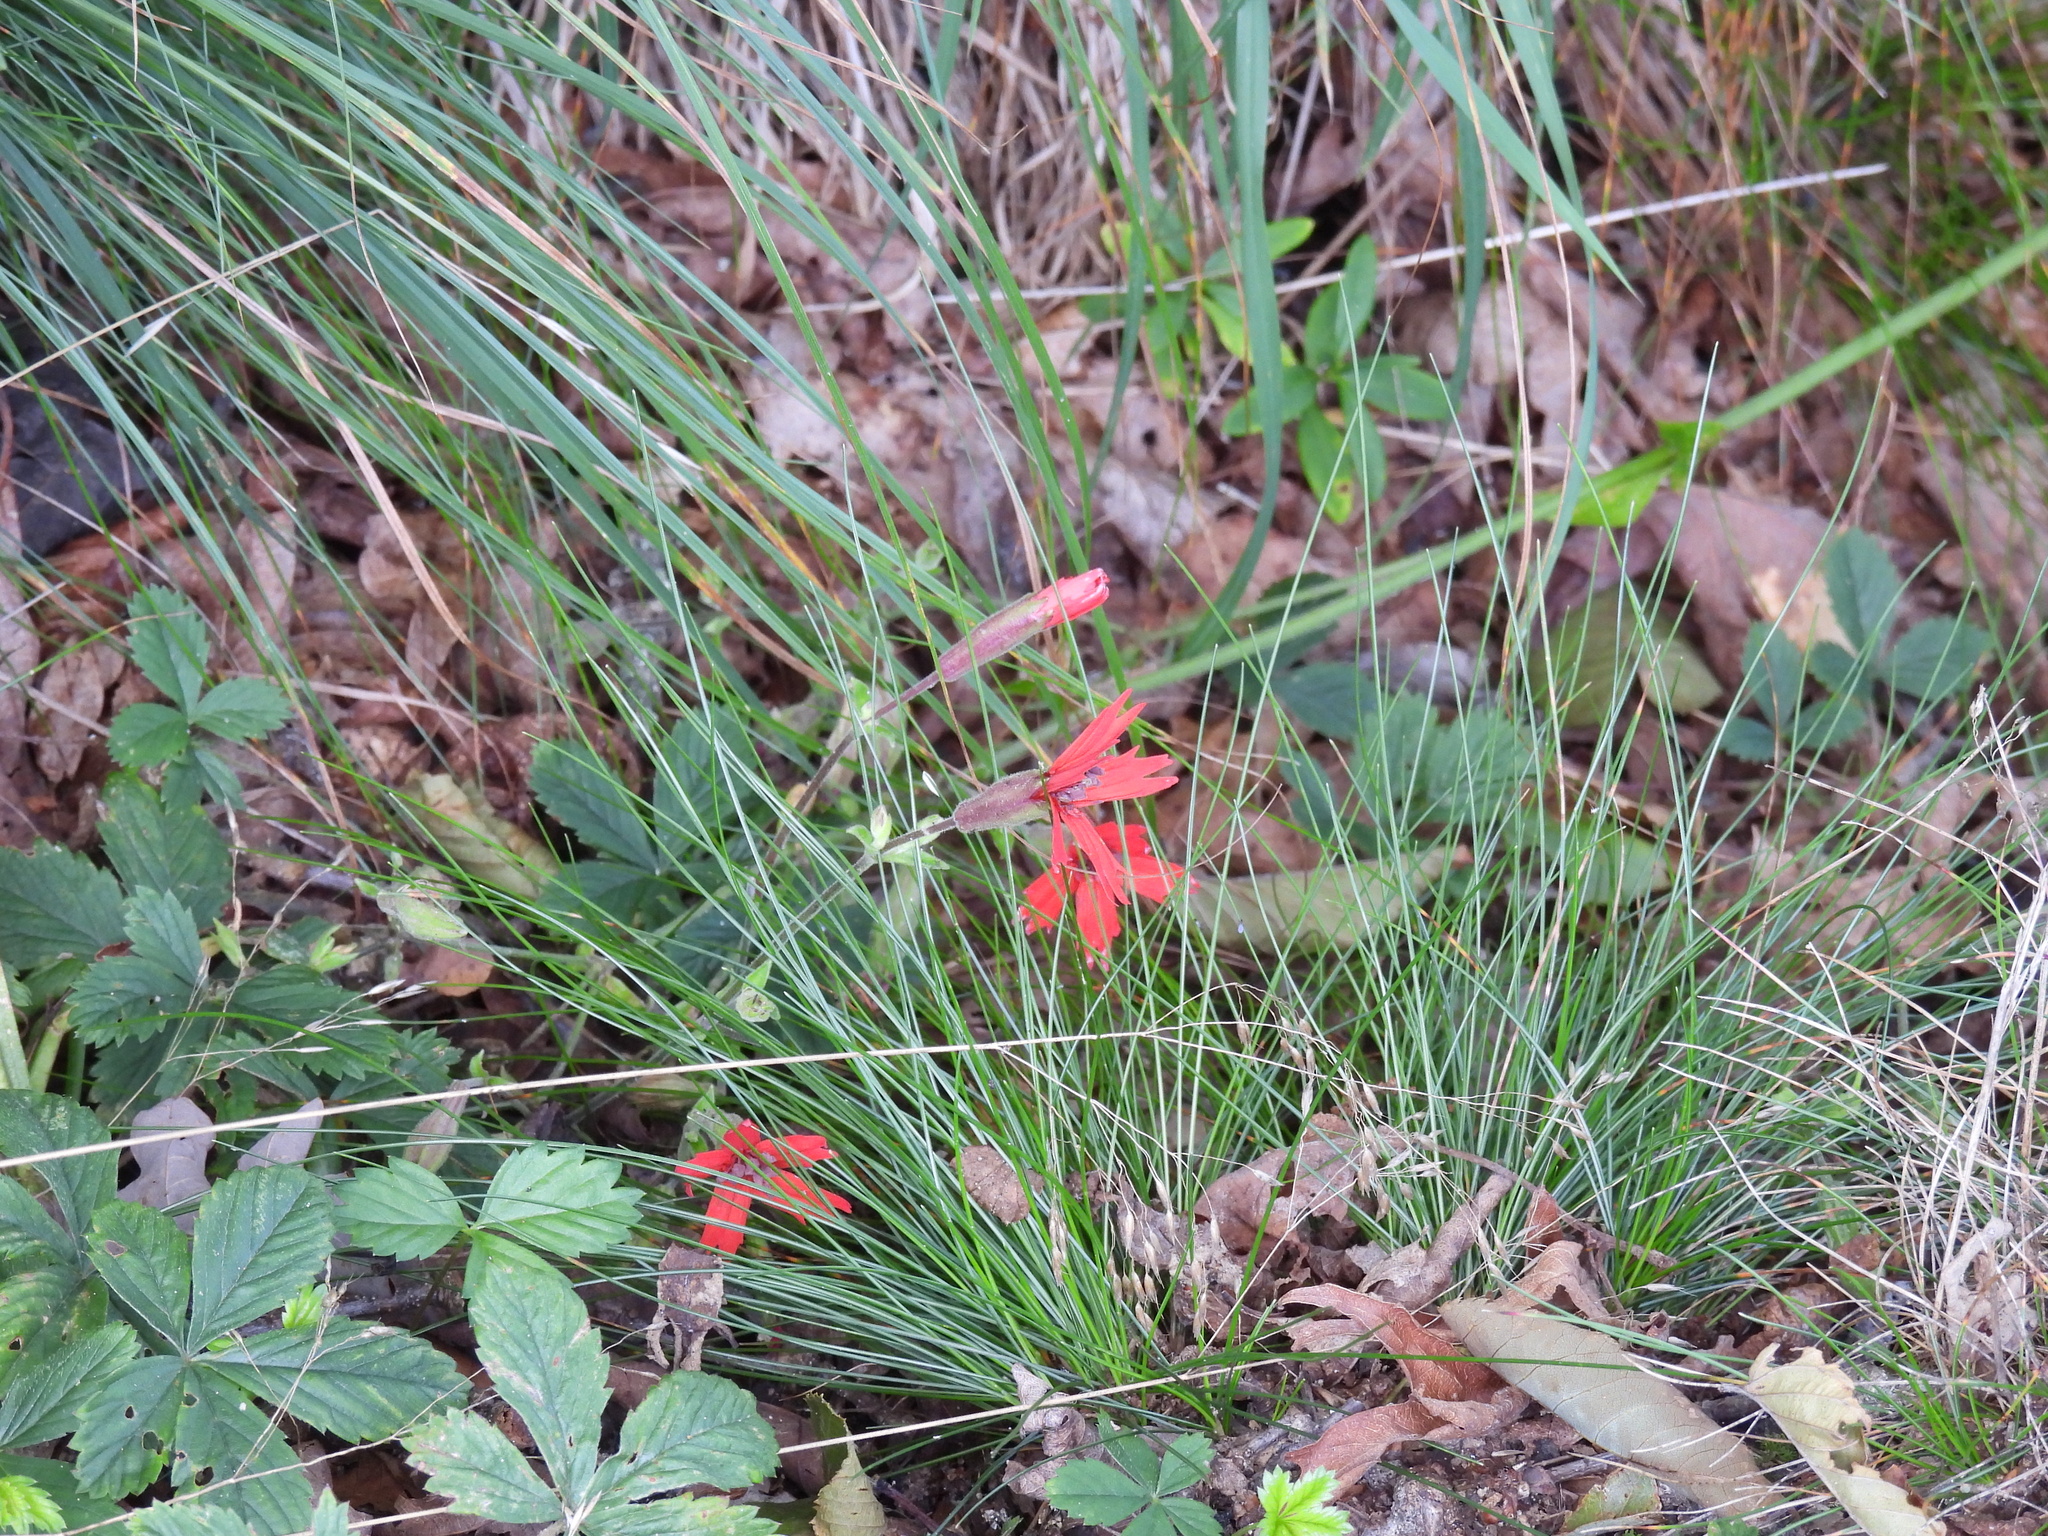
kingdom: Plantae
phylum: Tracheophyta
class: Magnoliopsida
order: Caryophyllales
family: Caryophyllaceae
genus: Silene
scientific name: Silene virginica
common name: Fire-pink
